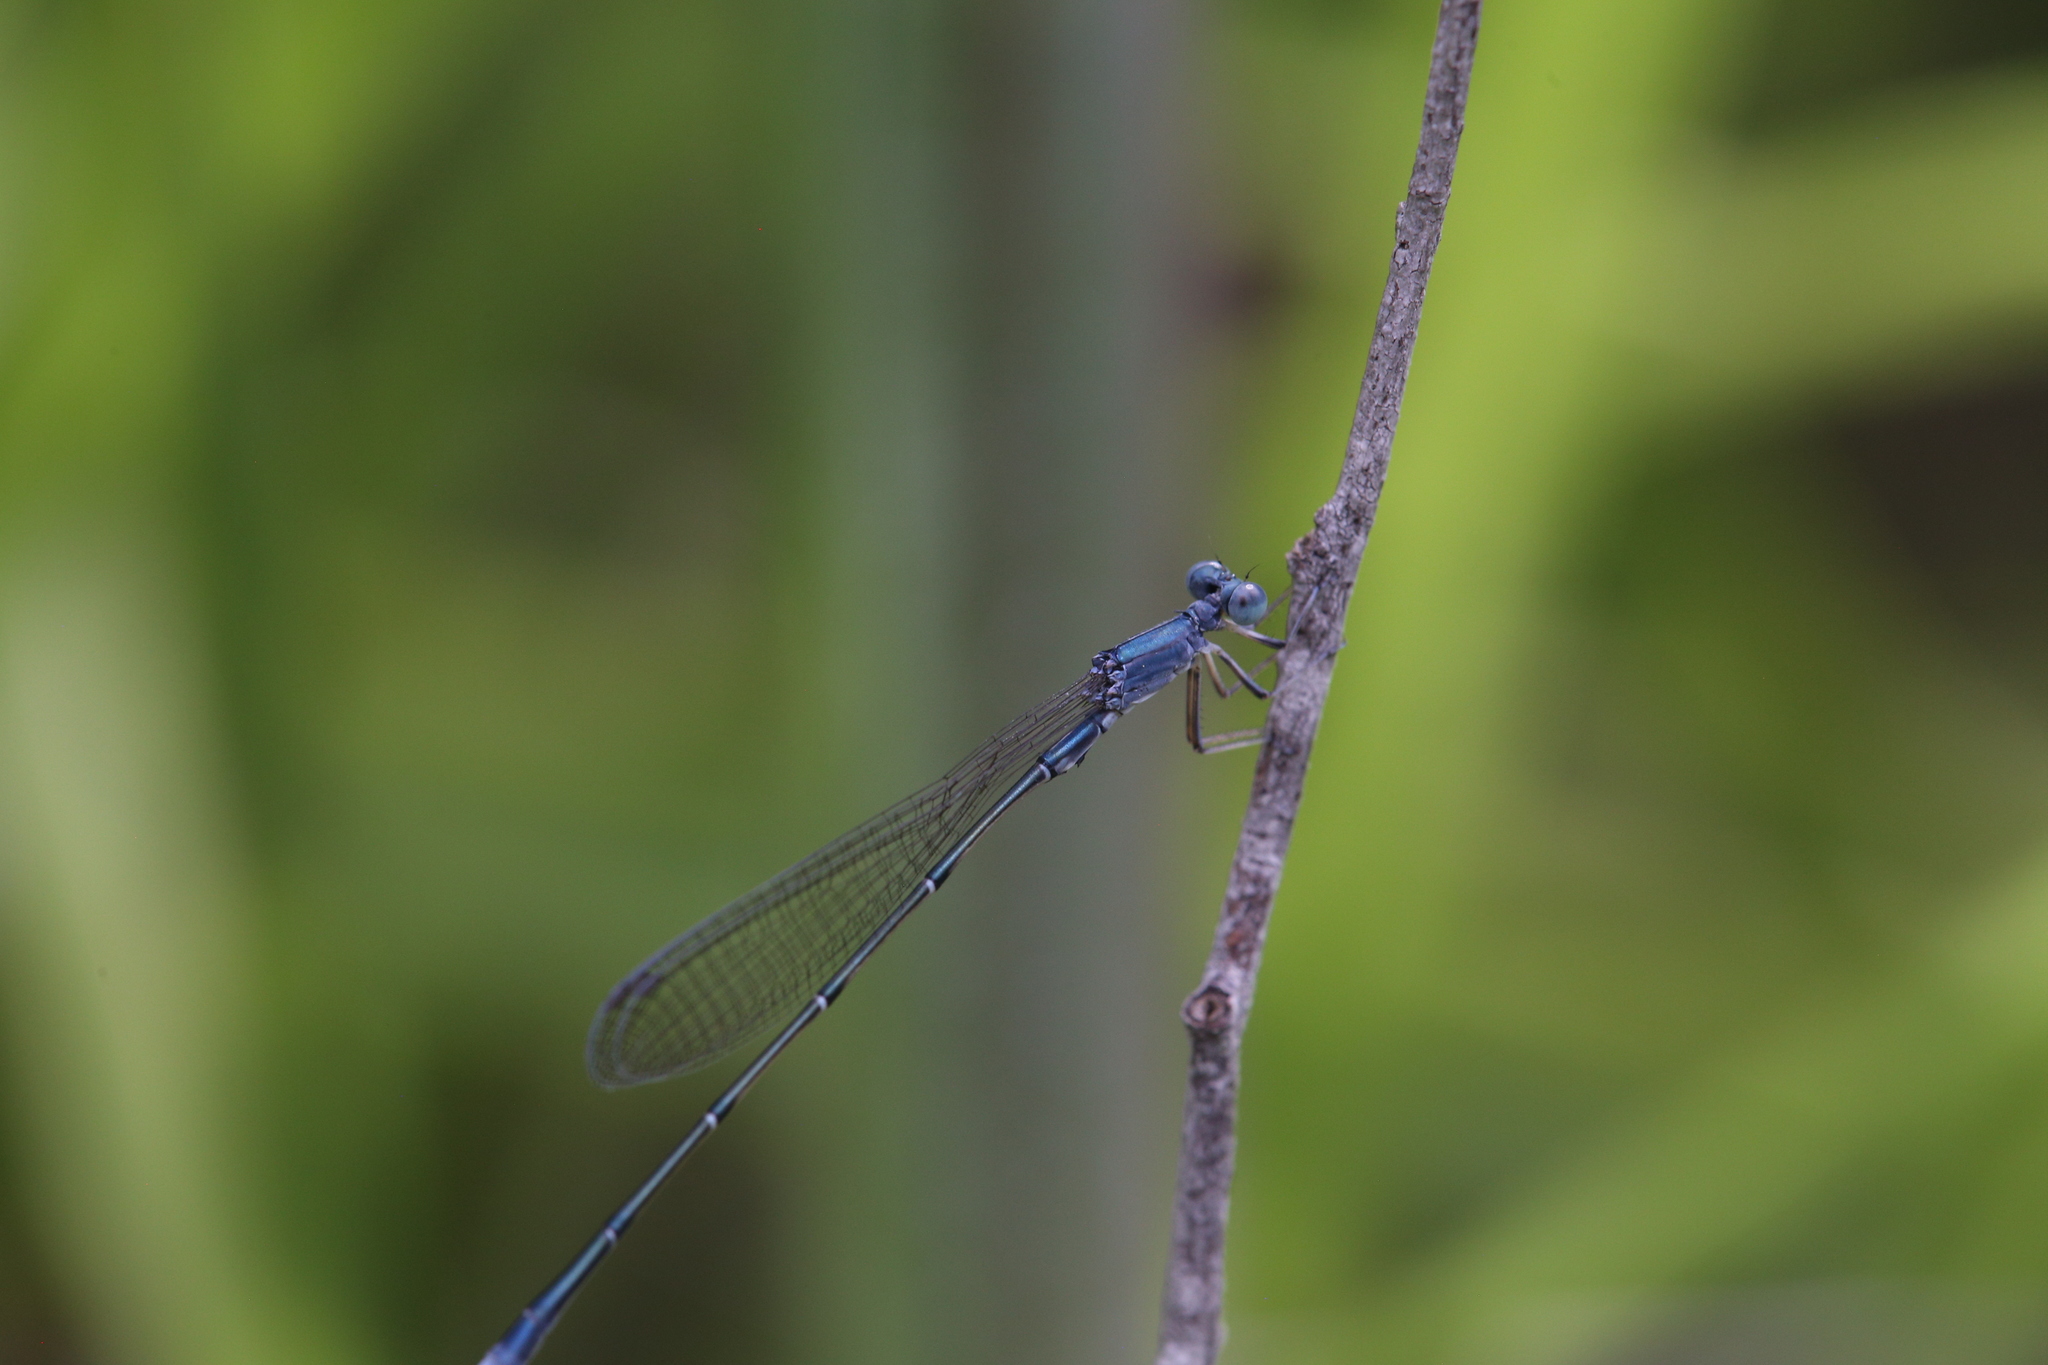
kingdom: Animalia
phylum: Arthropoda
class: Insecta
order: Odonata
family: Isostictidae
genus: Rhadinosticta
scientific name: Rhadinosticta banksi
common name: Northern wiretail
